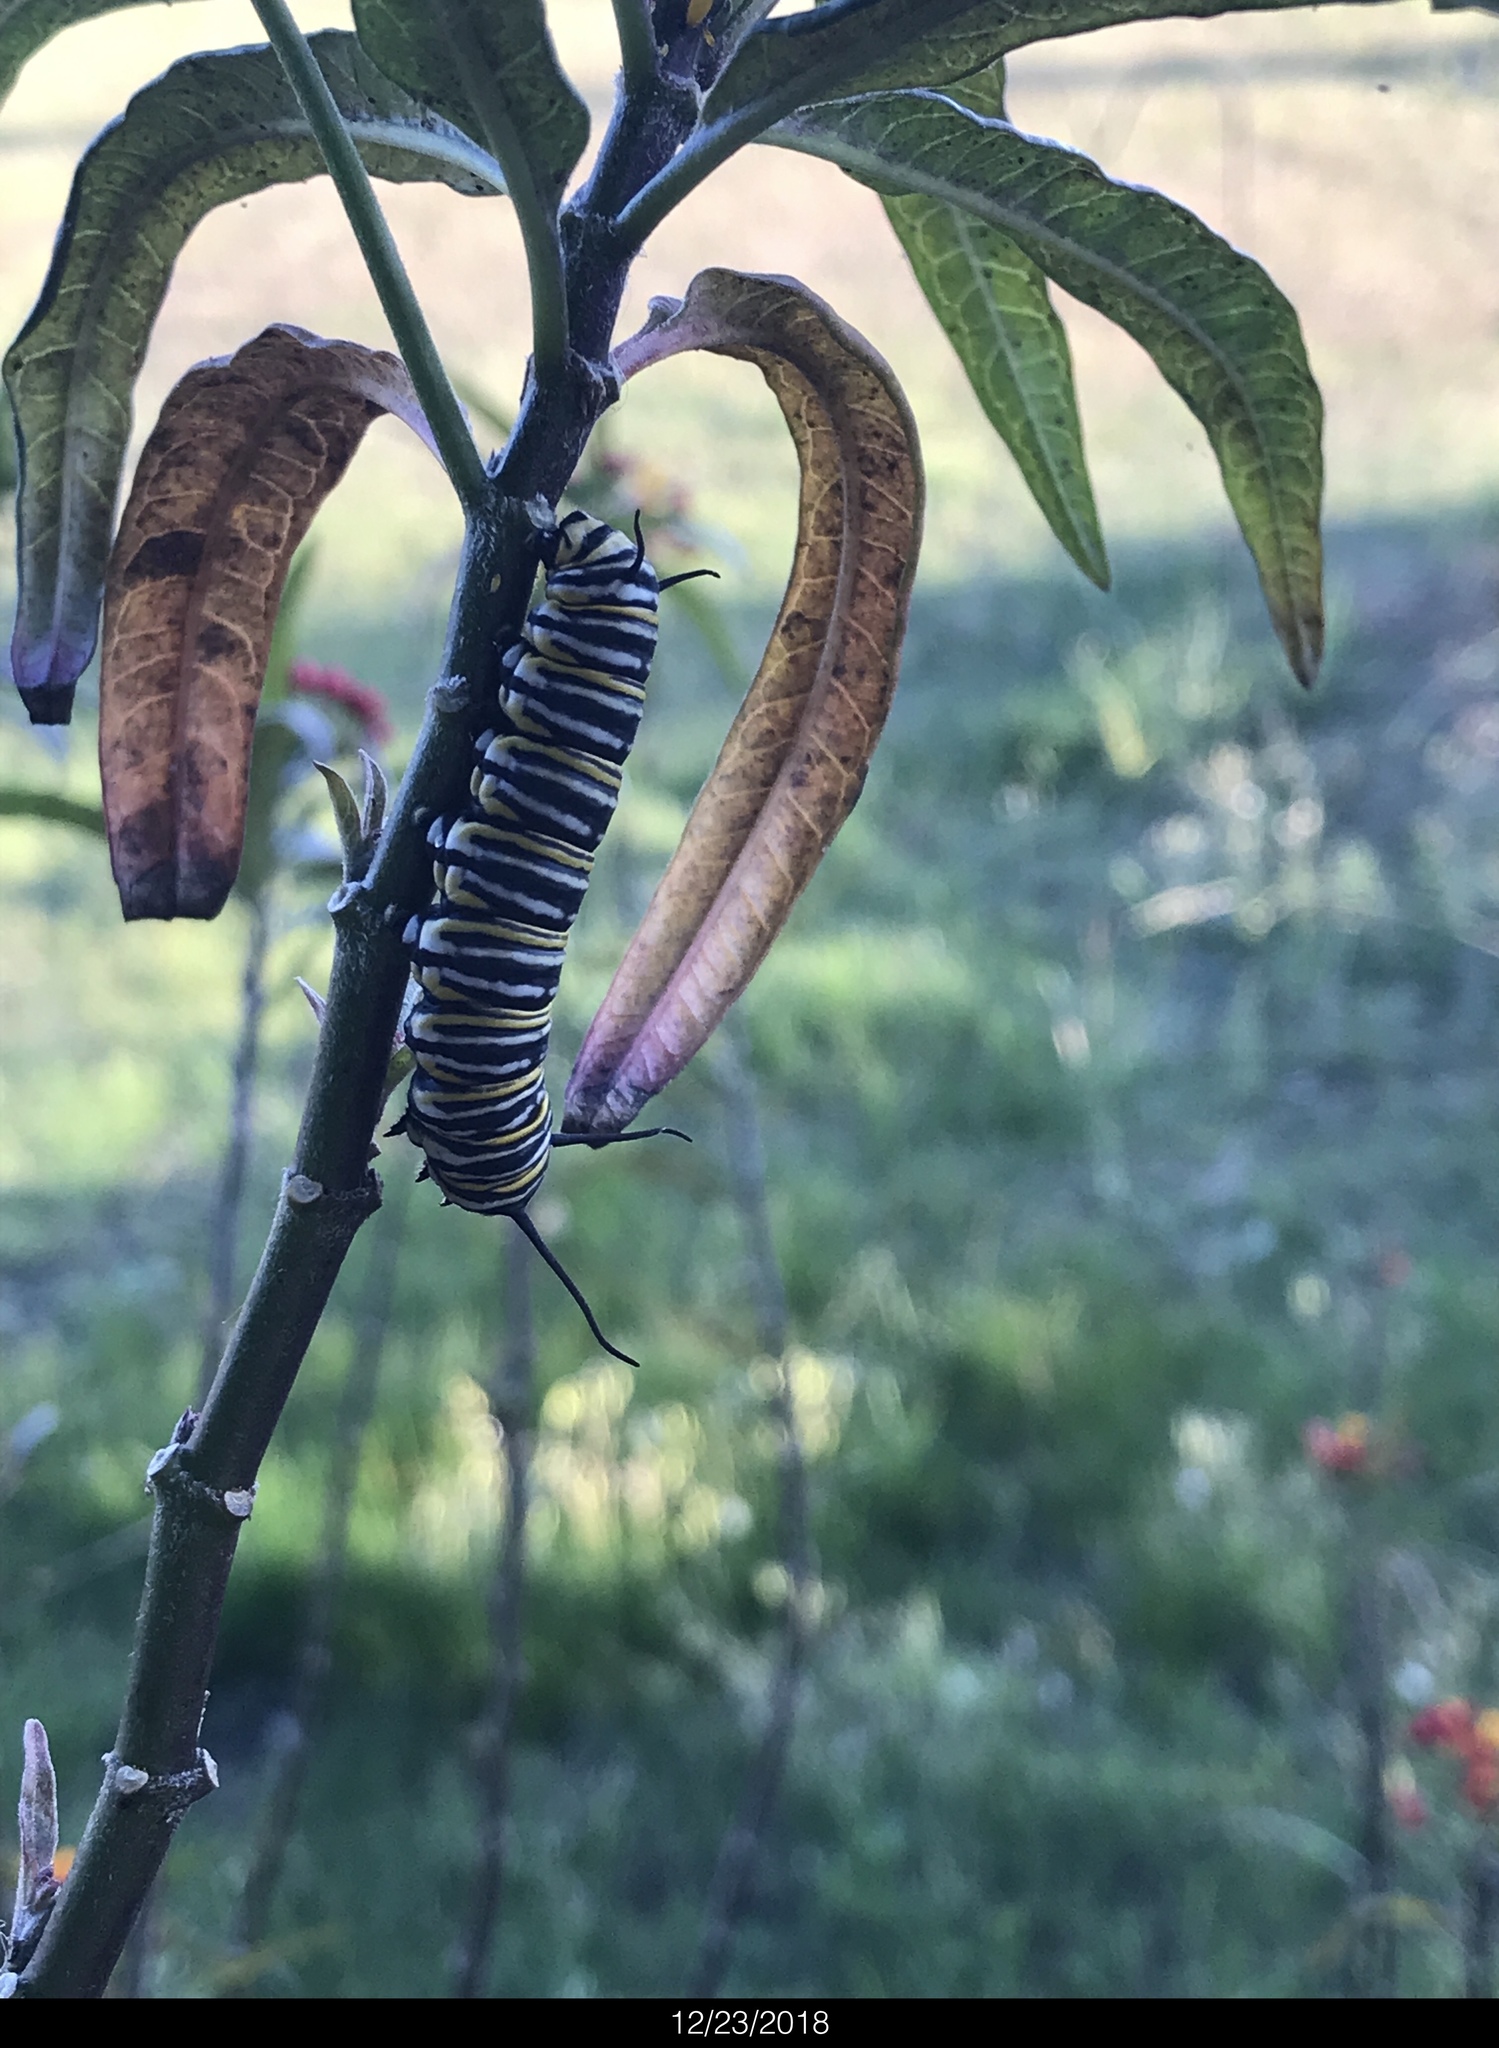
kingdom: Animalia
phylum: Arthropoda
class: Insecta
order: Lepidoptera
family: Nymphalidae
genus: Danaus
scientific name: Danaus plexippus
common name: Monarch
